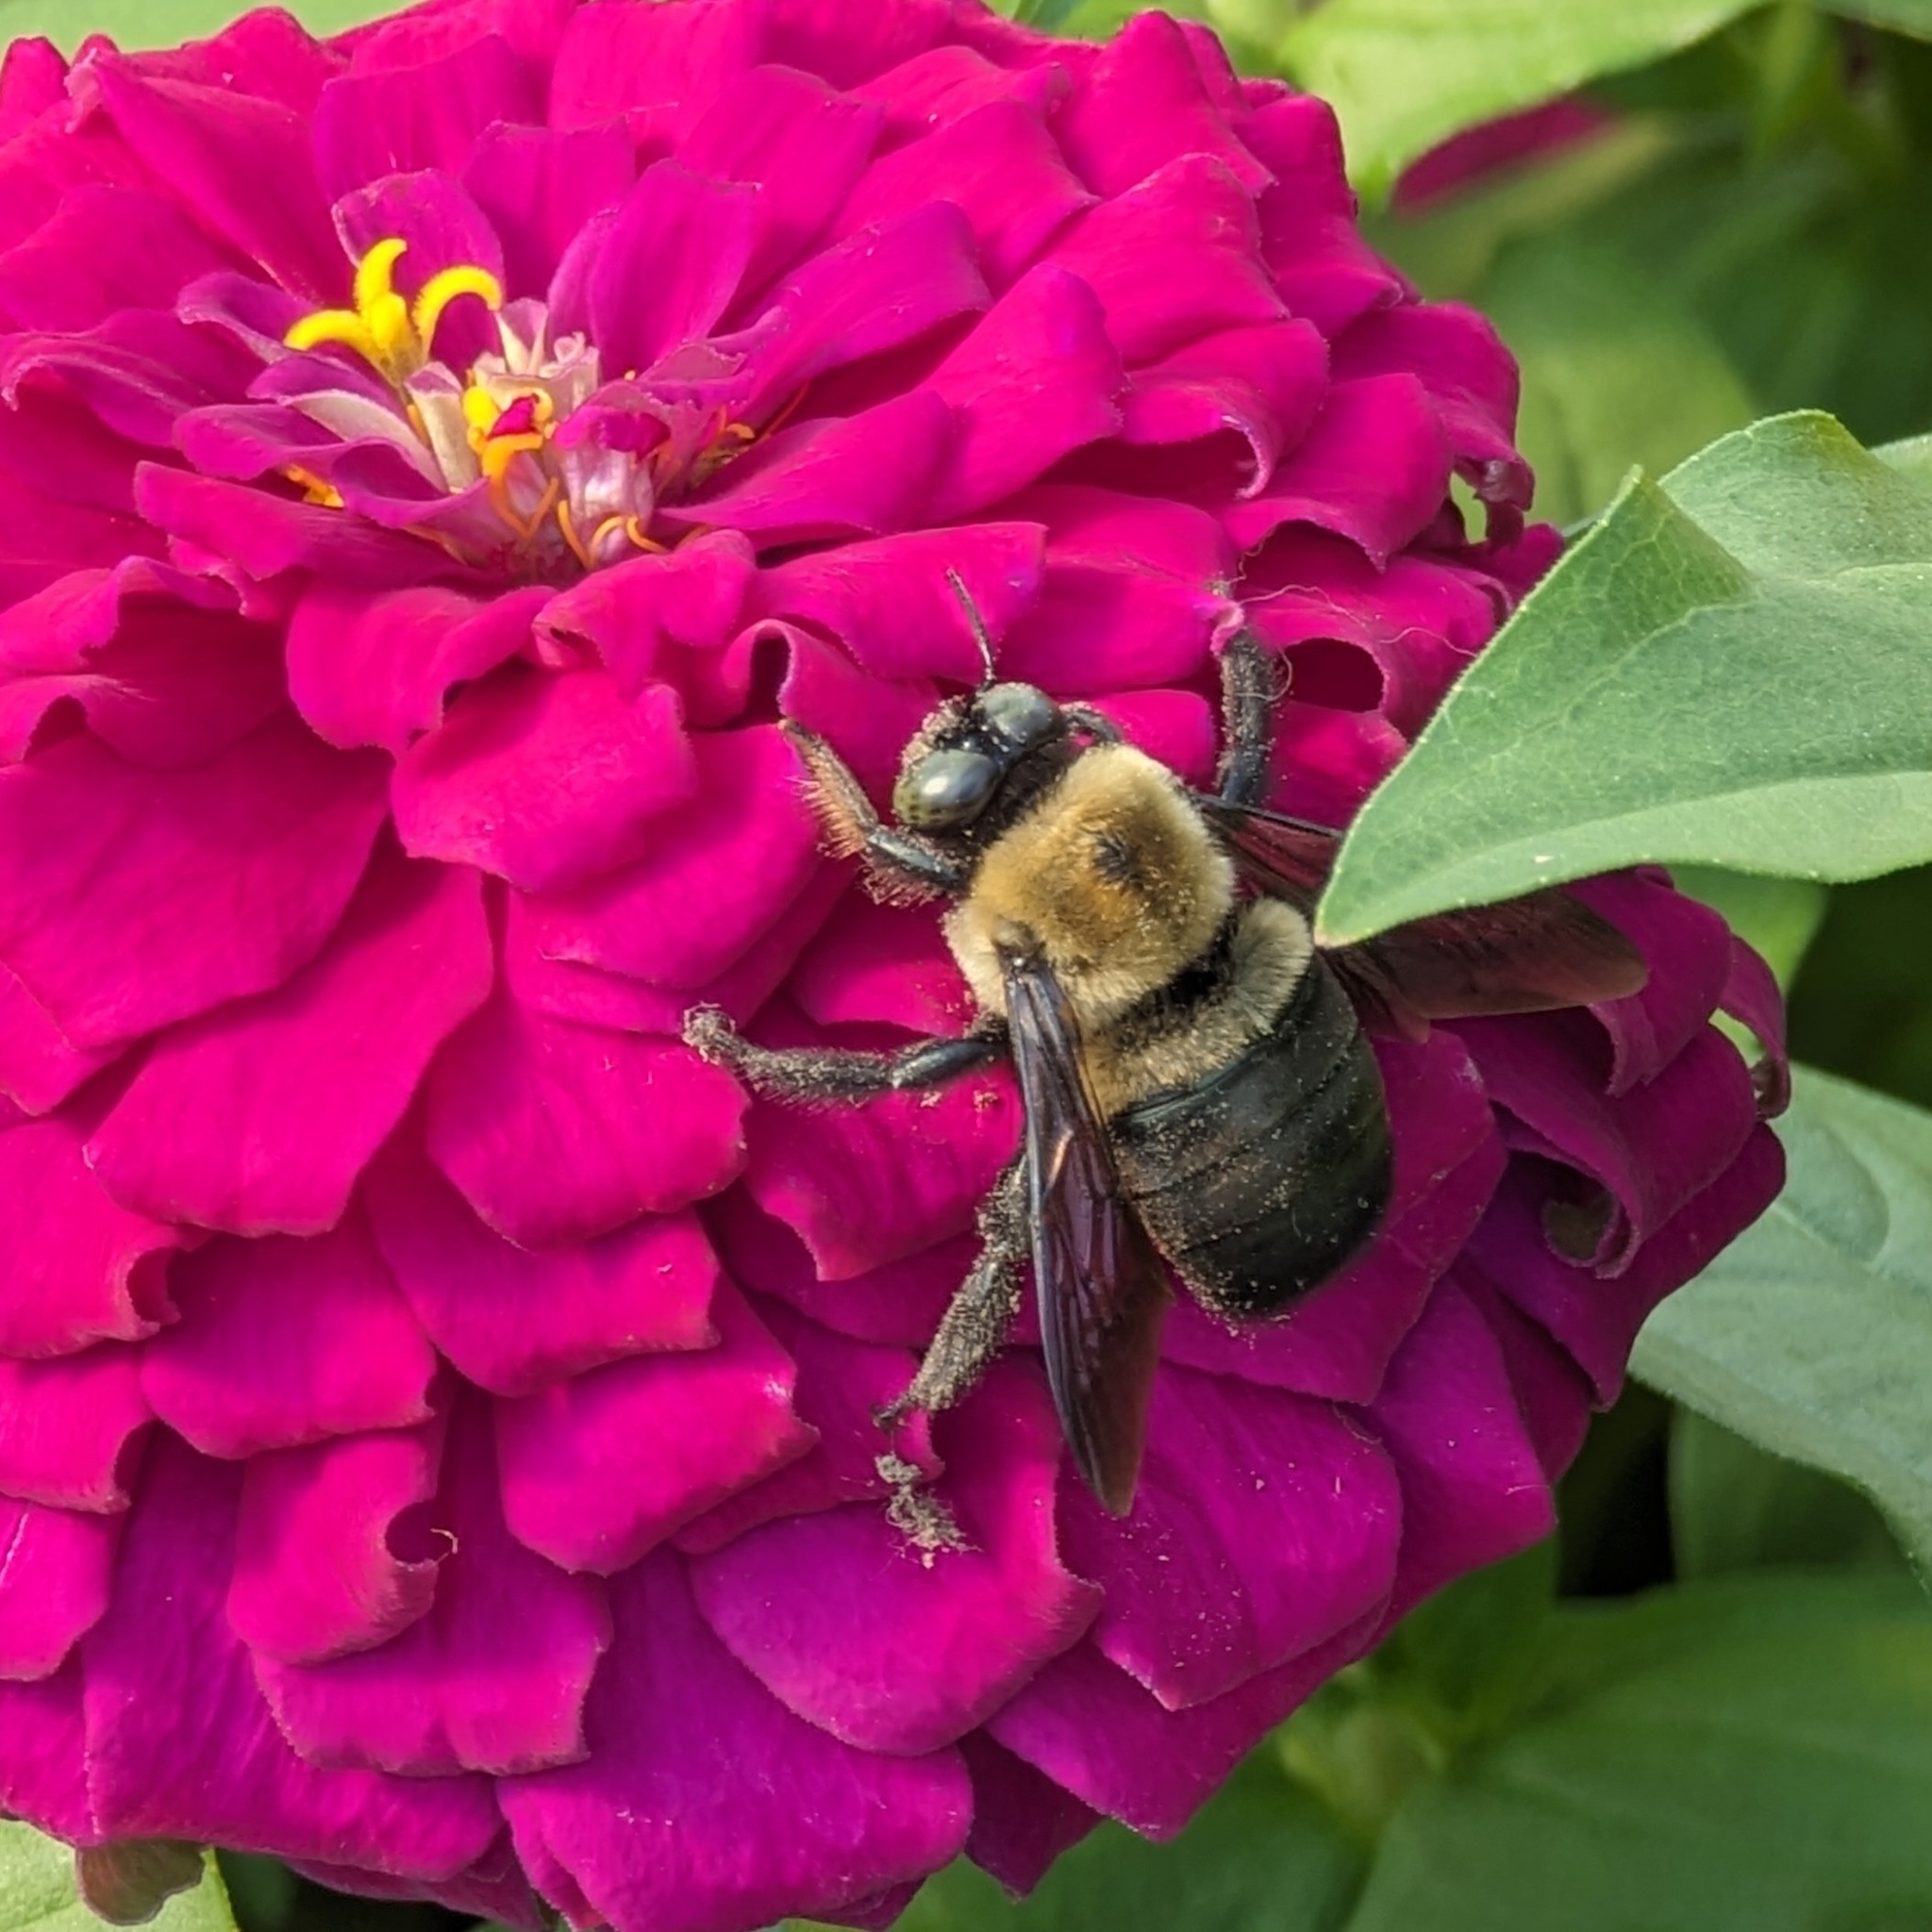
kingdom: Animalia
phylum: Arthropoda
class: Insecta
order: Hymenoptera
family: Apidae
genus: Xylocopa
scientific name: Xylocopa virginica
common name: Carpenter bee
